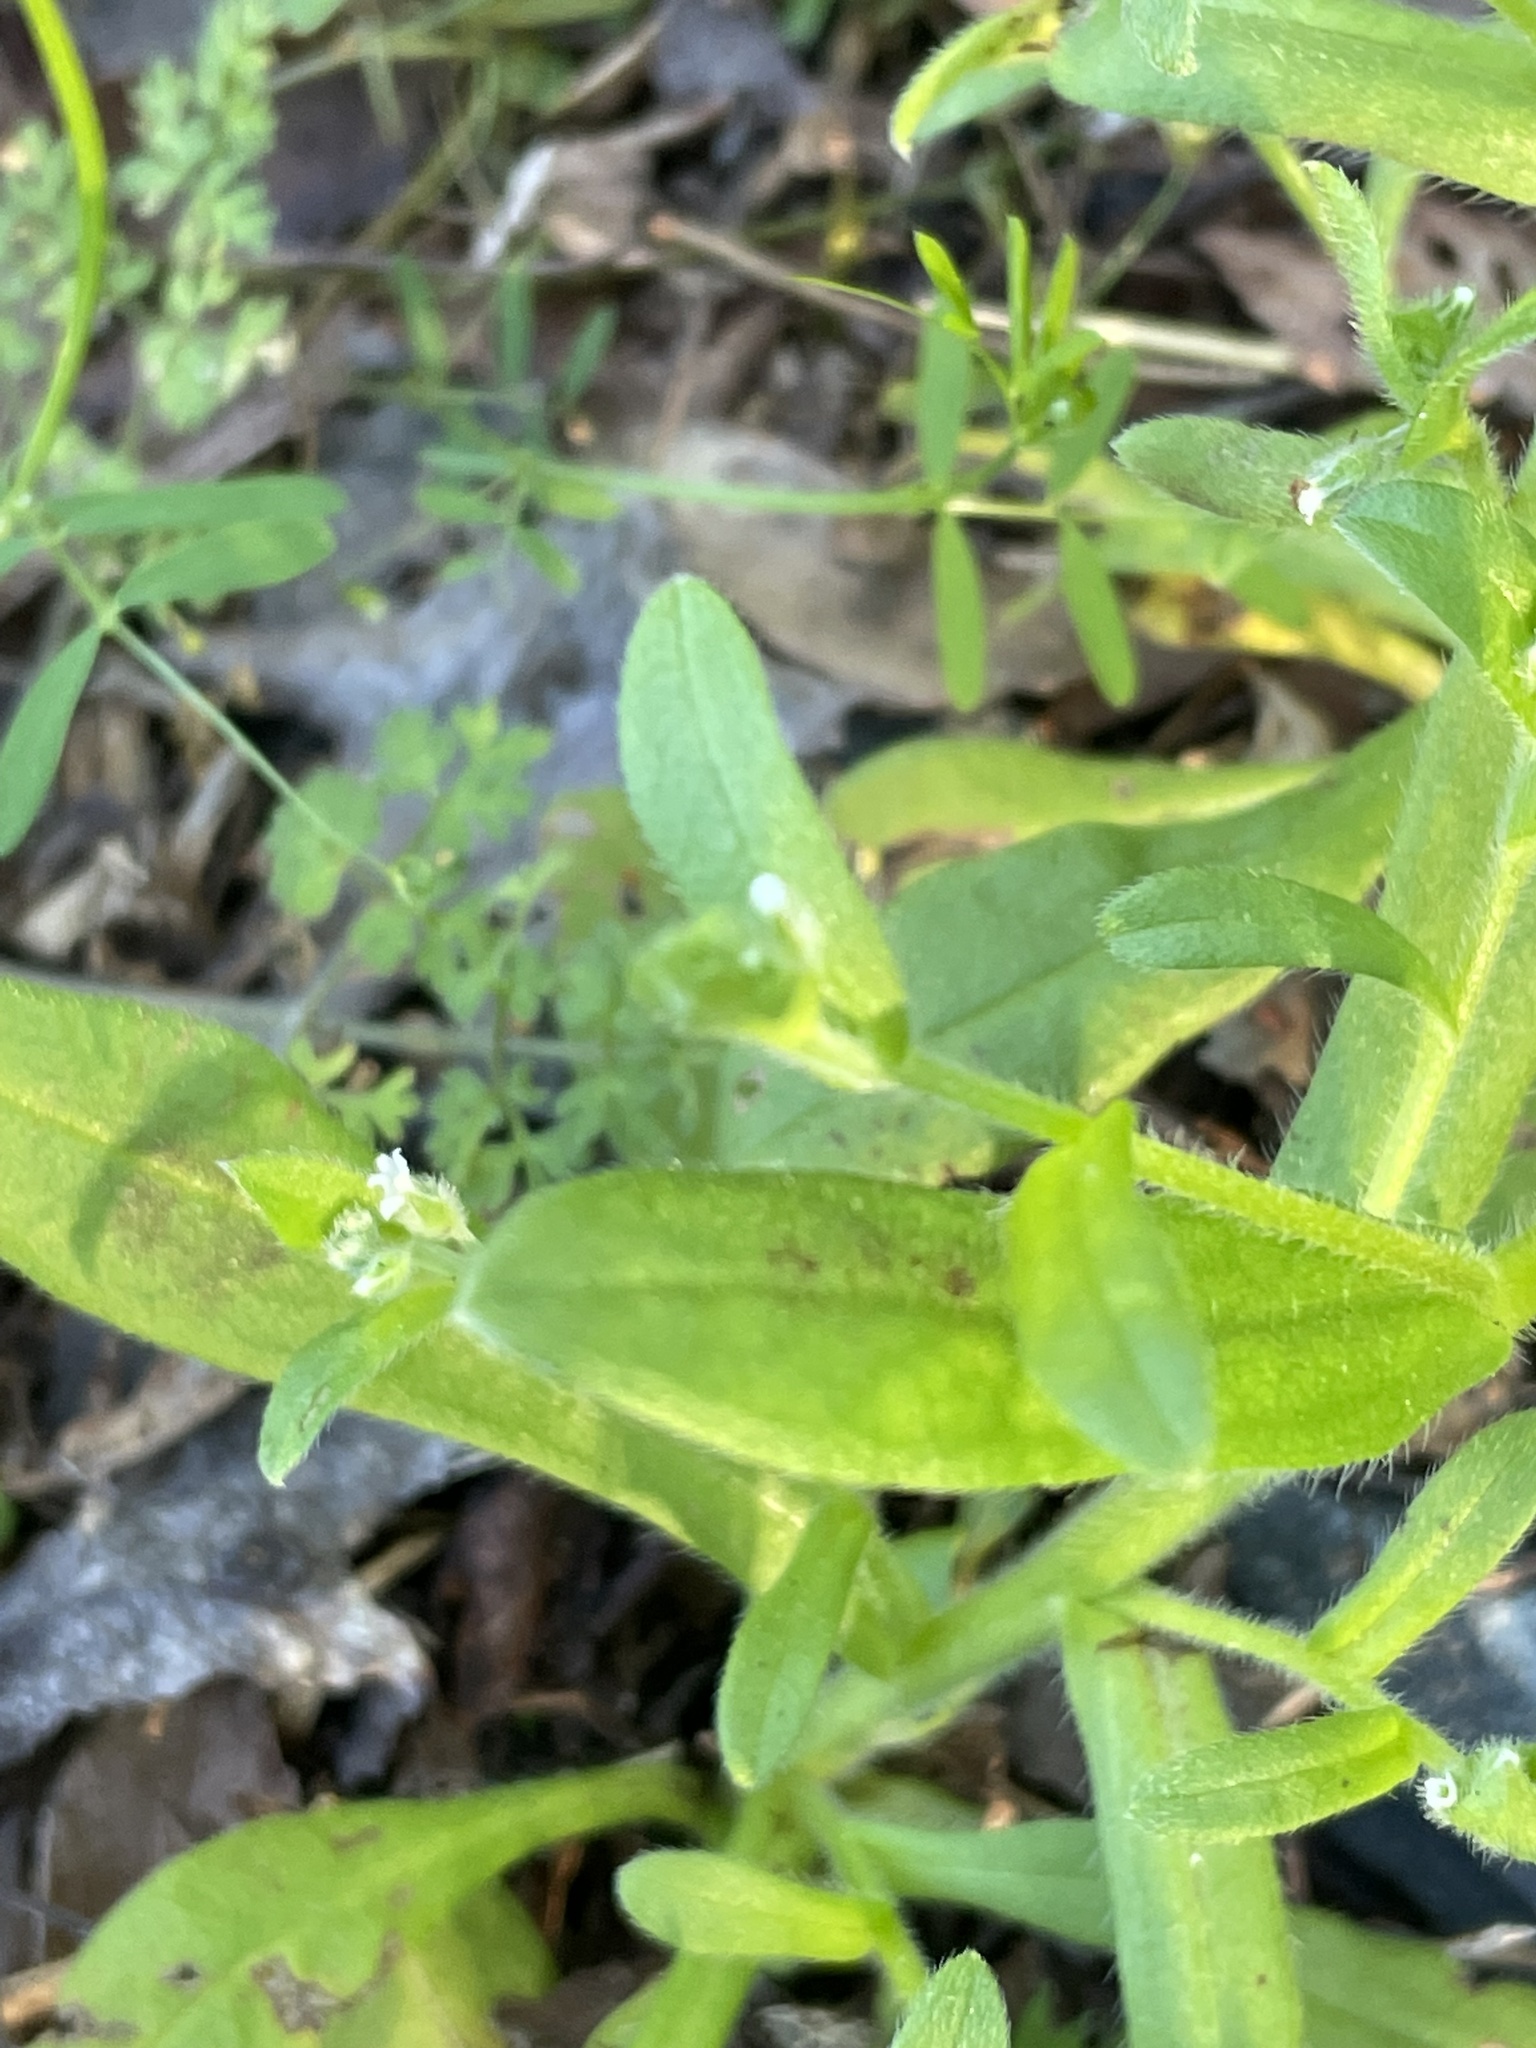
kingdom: Plantae
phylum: Tracheophyta
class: Magnoliopsida
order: Boraginales
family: Boraginaceae
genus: Myosotis
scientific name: Myosotis macrosperma
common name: Large-seed forget-me-not
